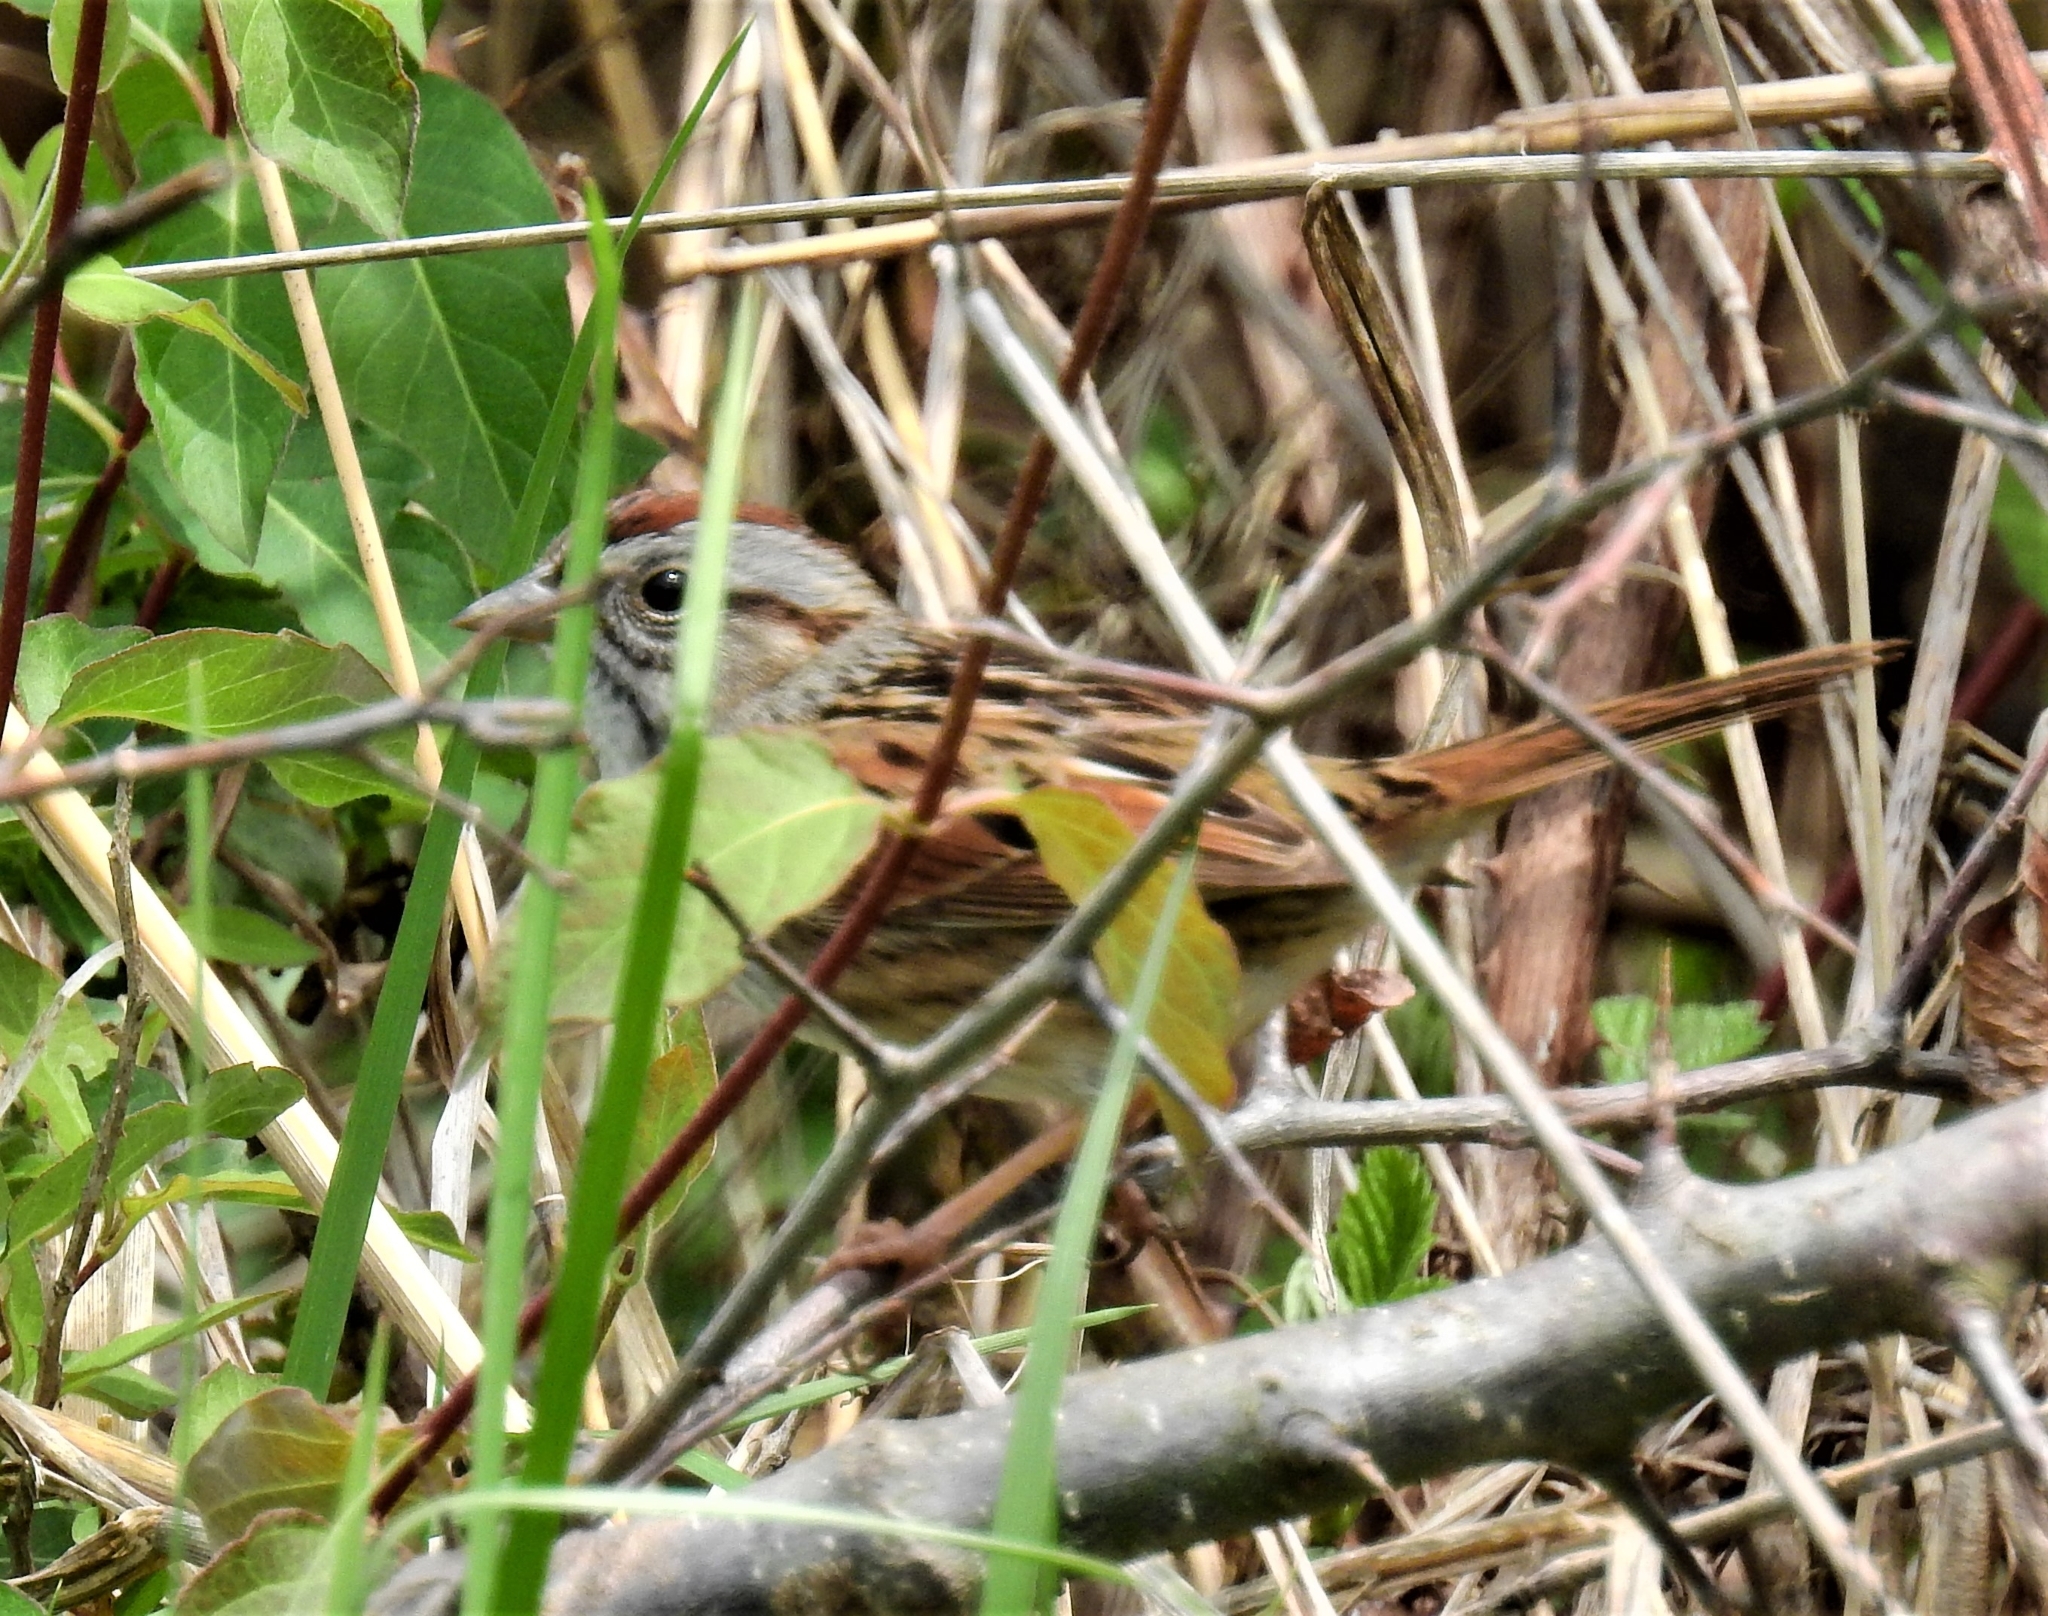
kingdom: Animalia
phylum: Chordata
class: Aves
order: Passeriformes
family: Passerellidae
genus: Melospiza
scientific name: Melospiza georgiana
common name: Swamp sparrow
